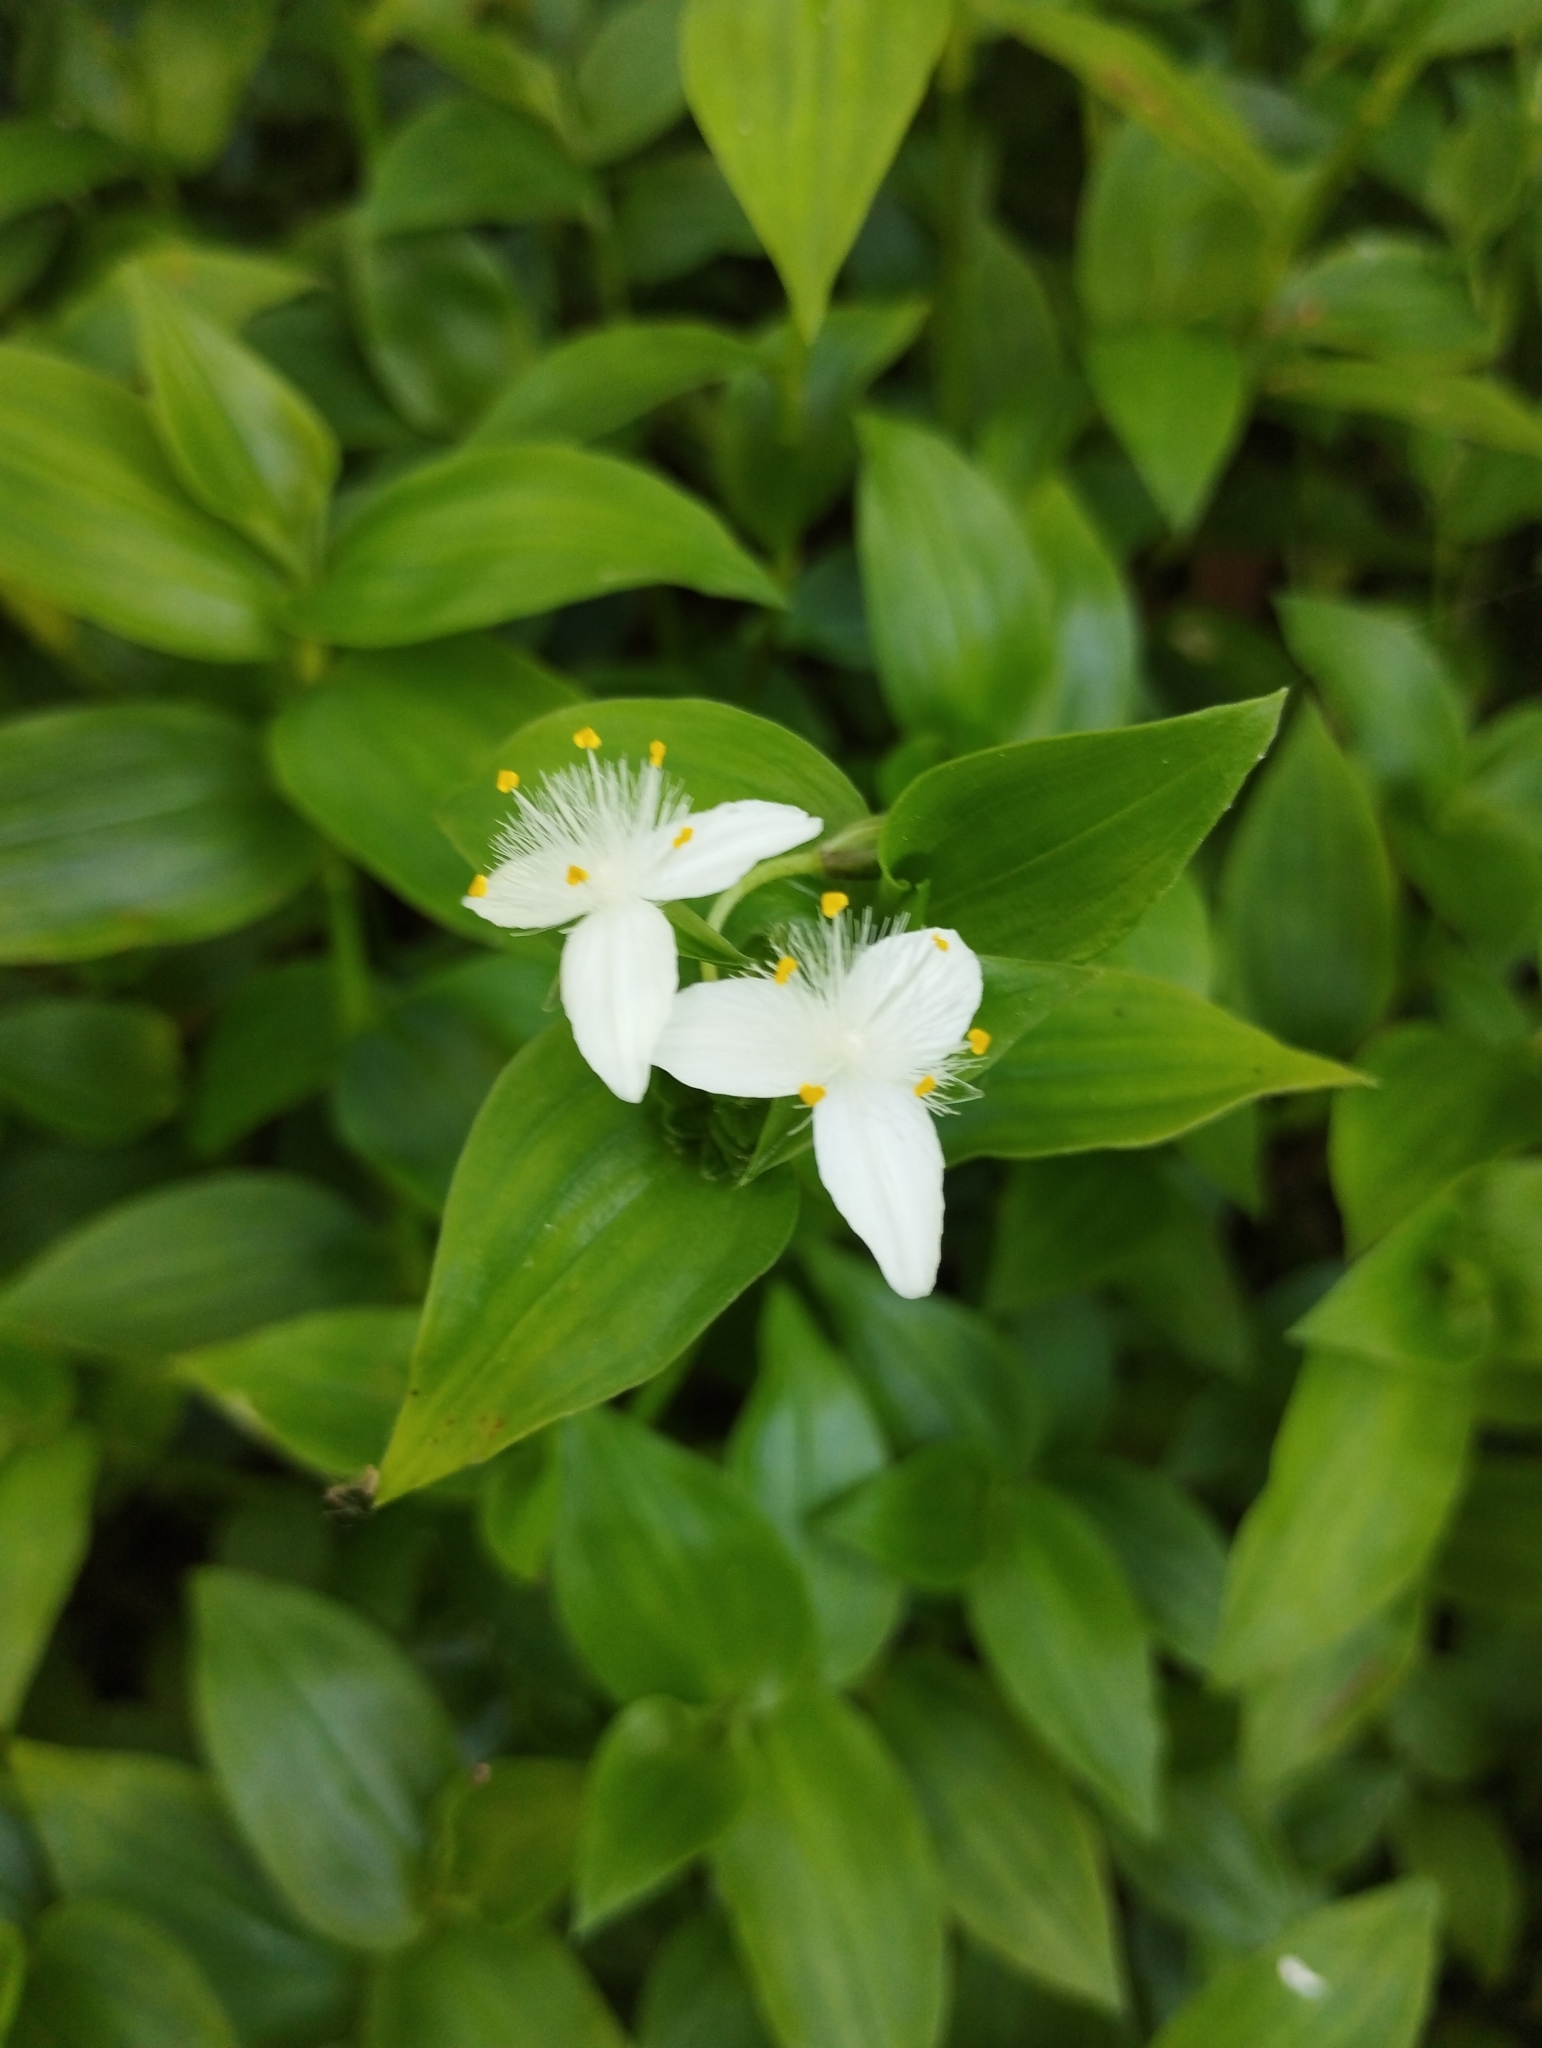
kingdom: Plantae
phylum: Tracheophyta
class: Liliopsida
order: Commelinales
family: Commelinaceae
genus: Tradescantia
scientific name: Tradescantia fluminensis
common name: Wandering-jew
